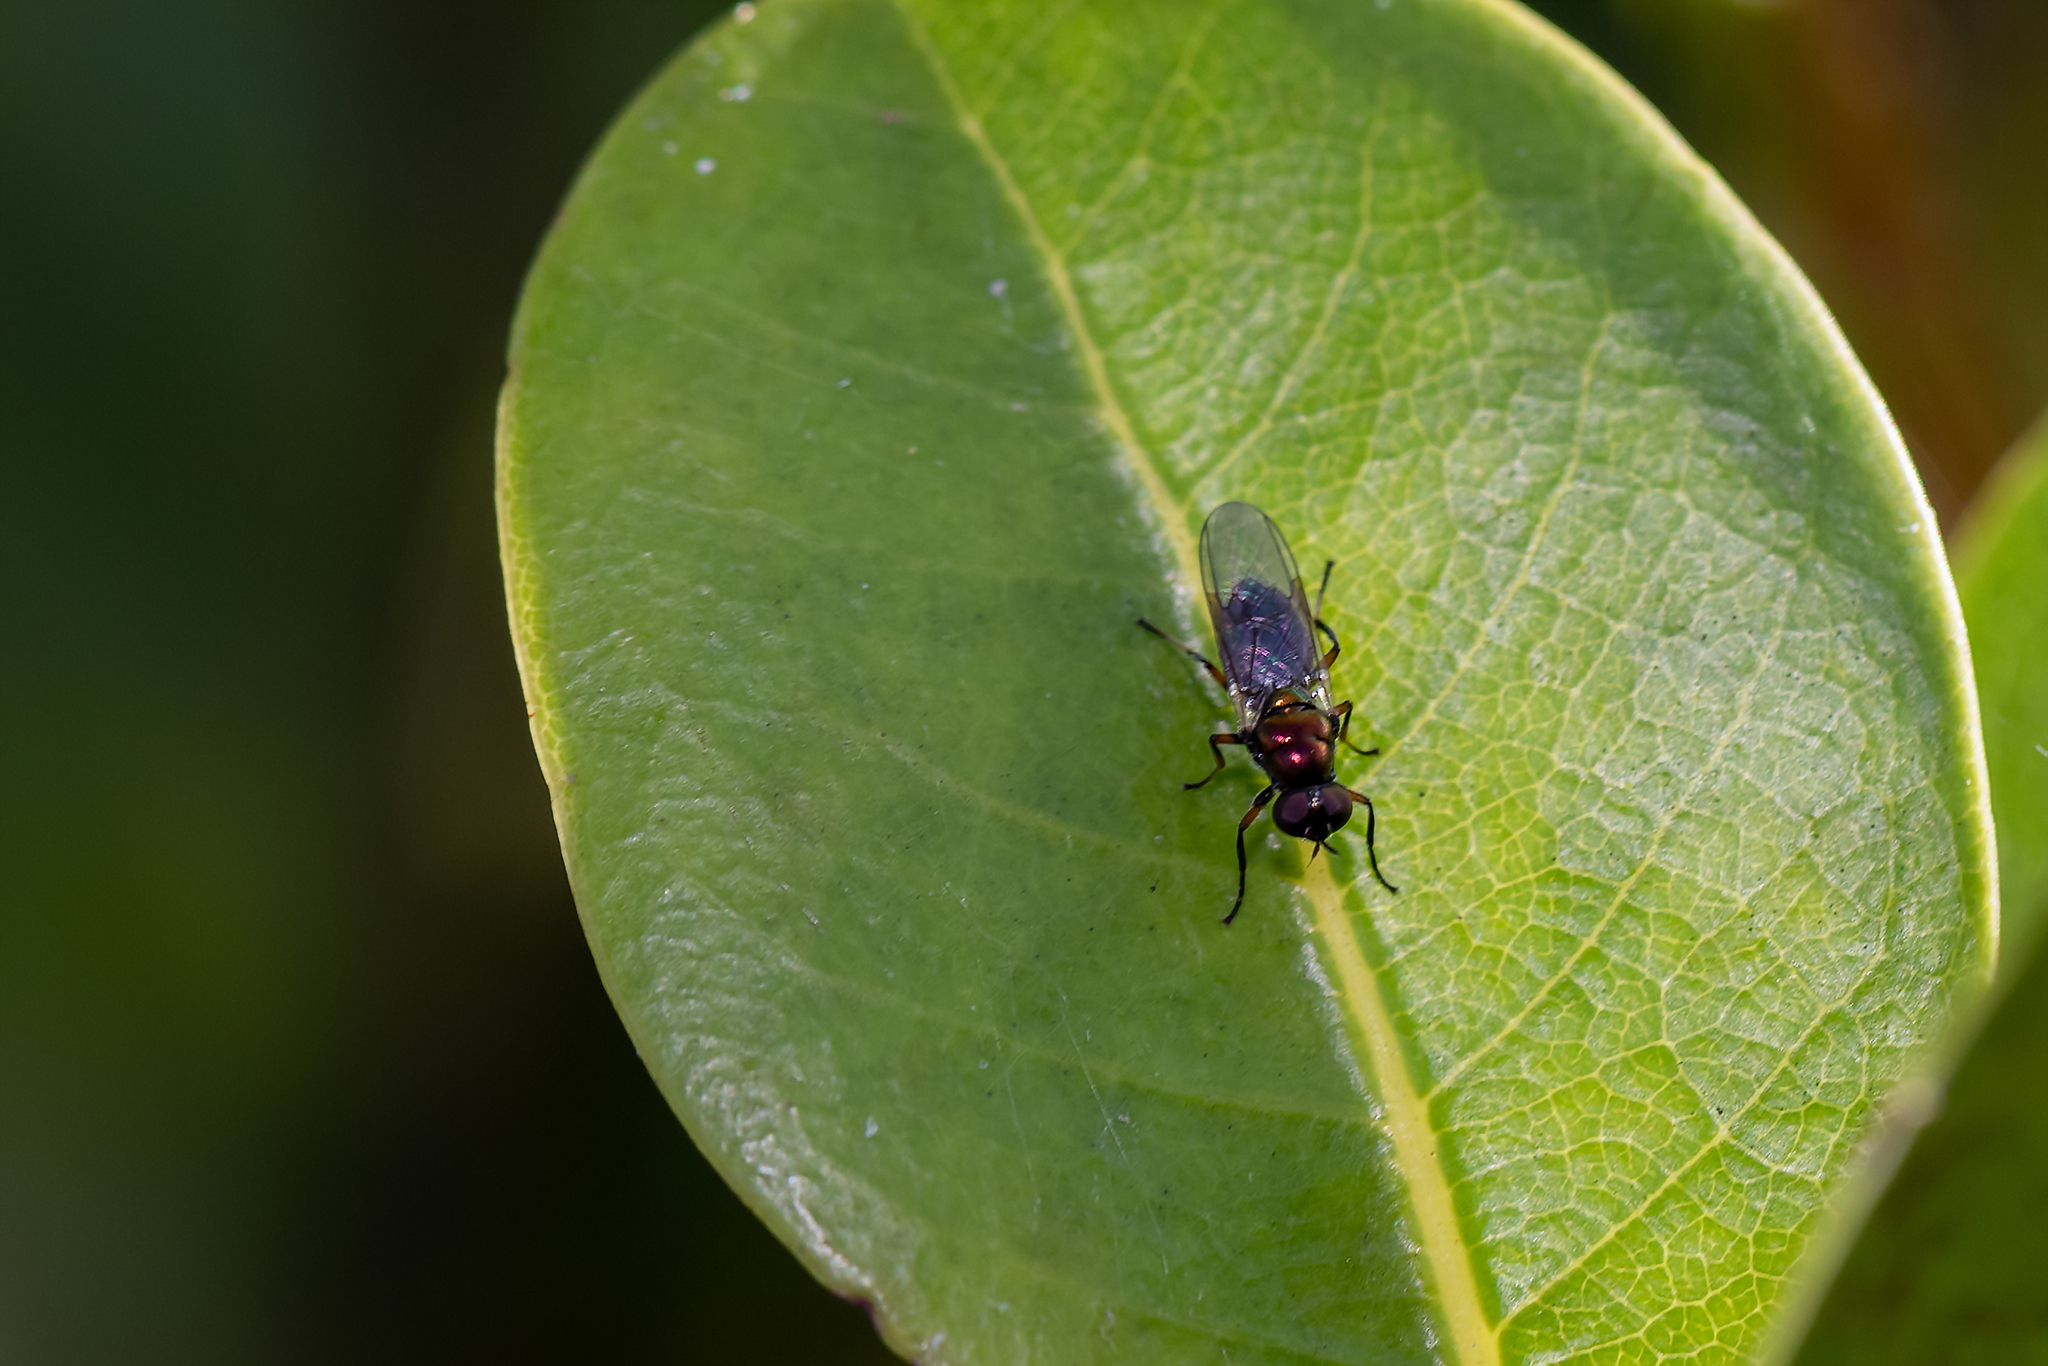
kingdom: Animalia
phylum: Arthropoda
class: Insecta
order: Diptera
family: Stratiomyidae
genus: Nothomyia
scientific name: Nothomyia calopus
